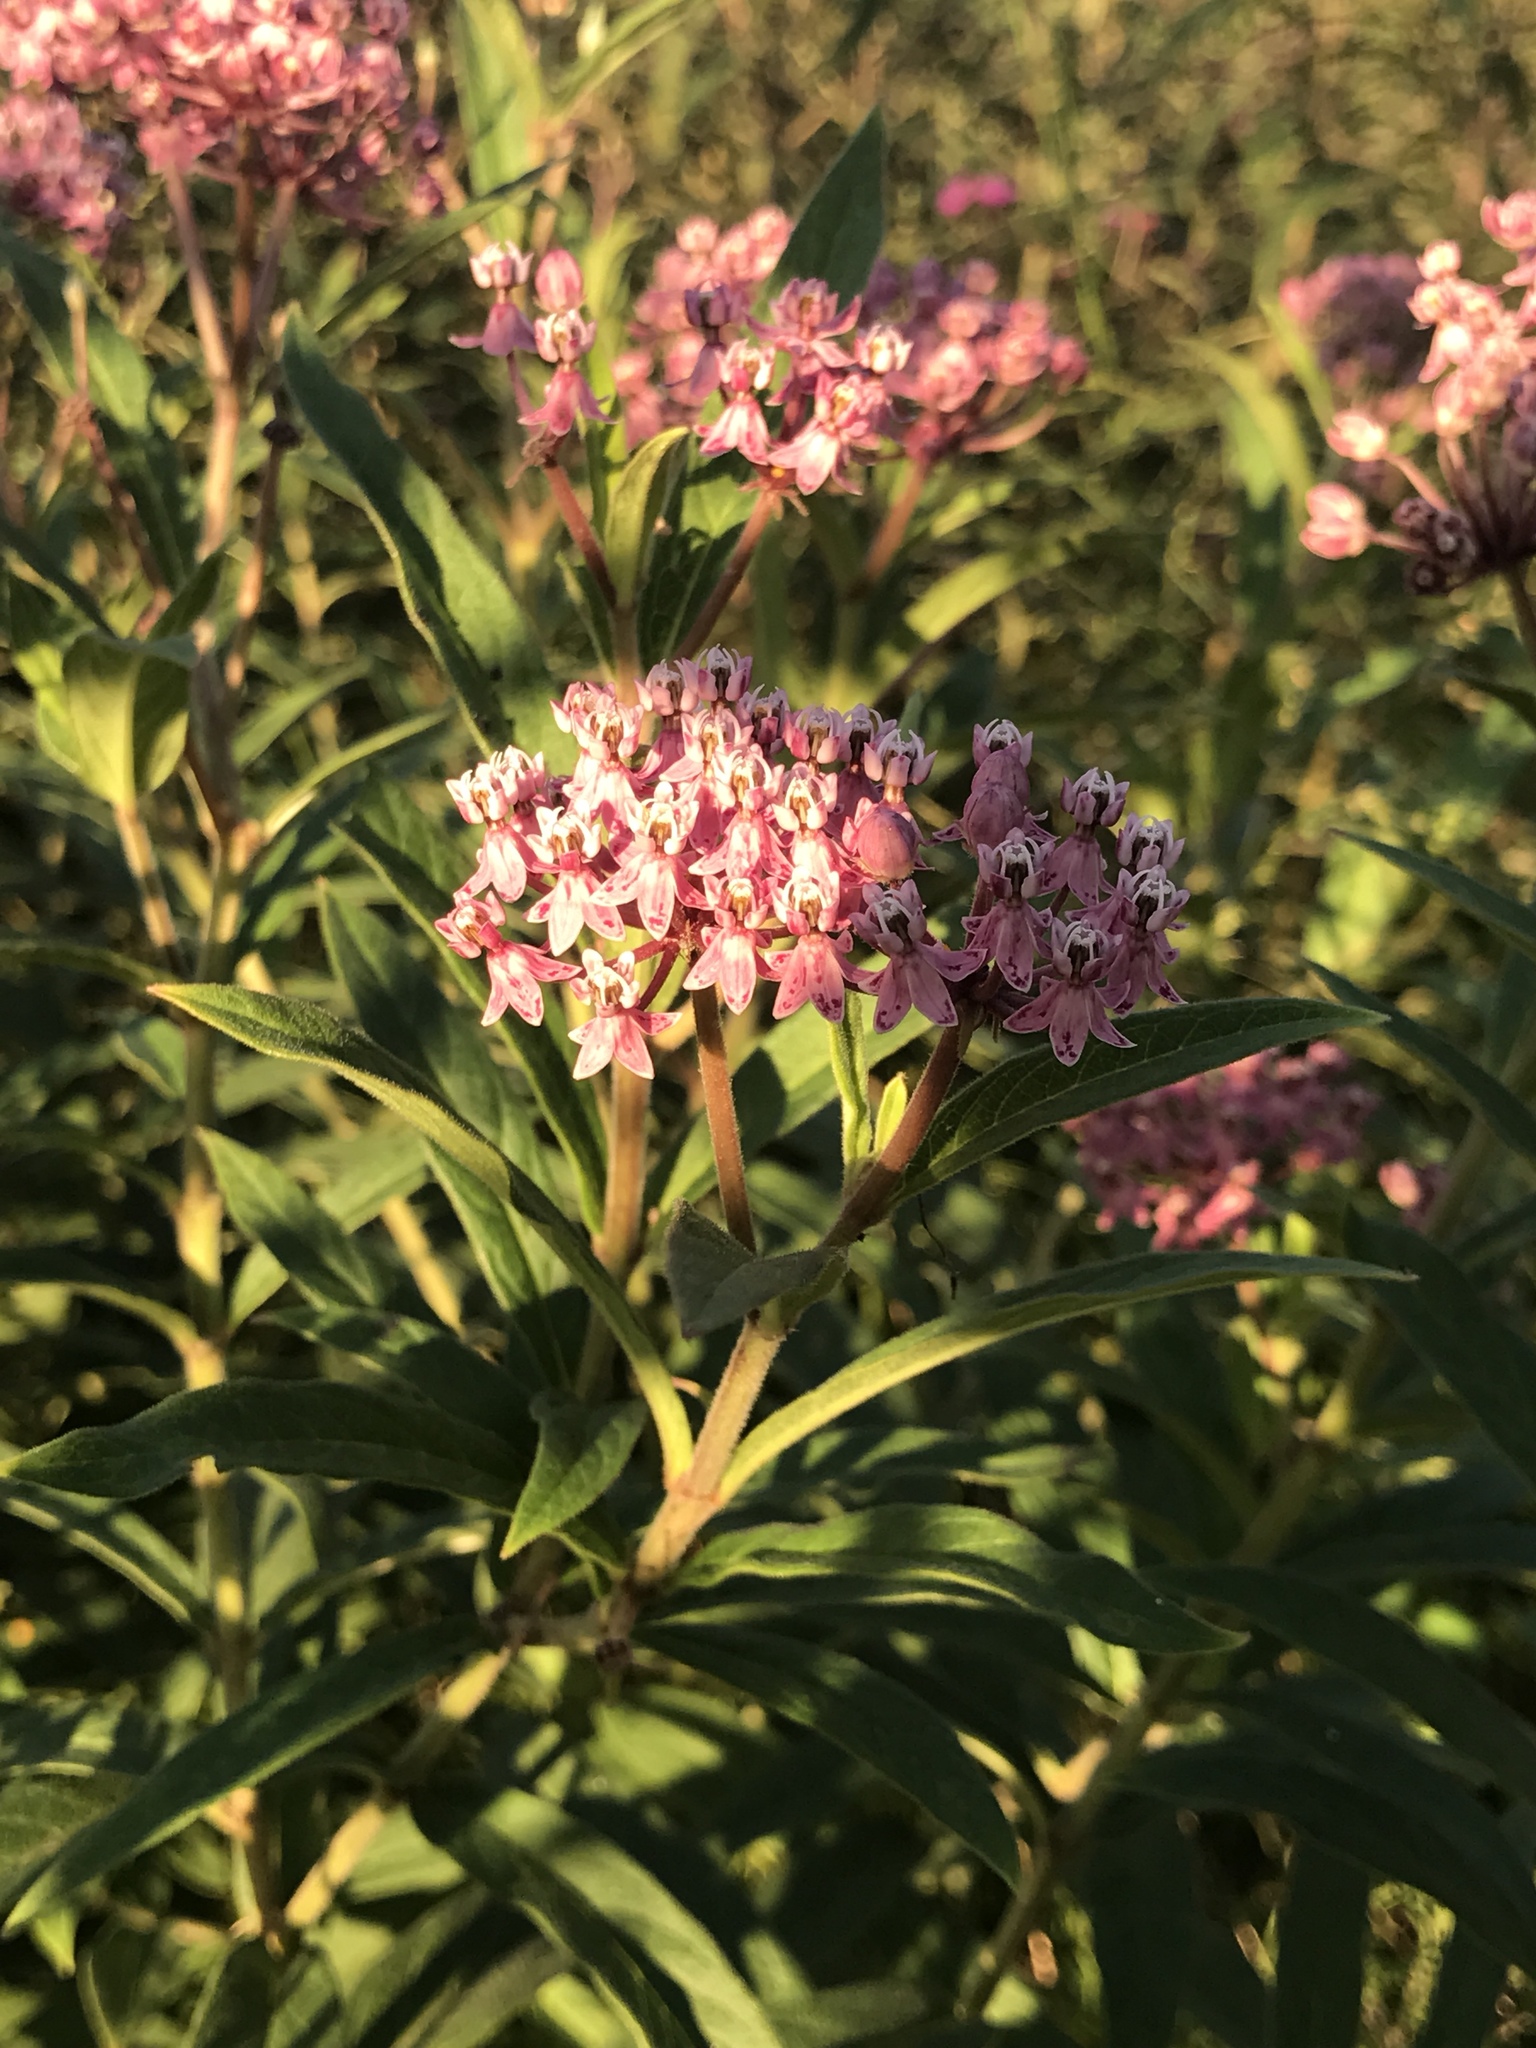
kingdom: Plantae
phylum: Tracheophyta
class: Magnoliopsida
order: Gentianales
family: Apocynaceae
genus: Asclepias
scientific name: Asclepias incarnata
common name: Swamp milkweed
